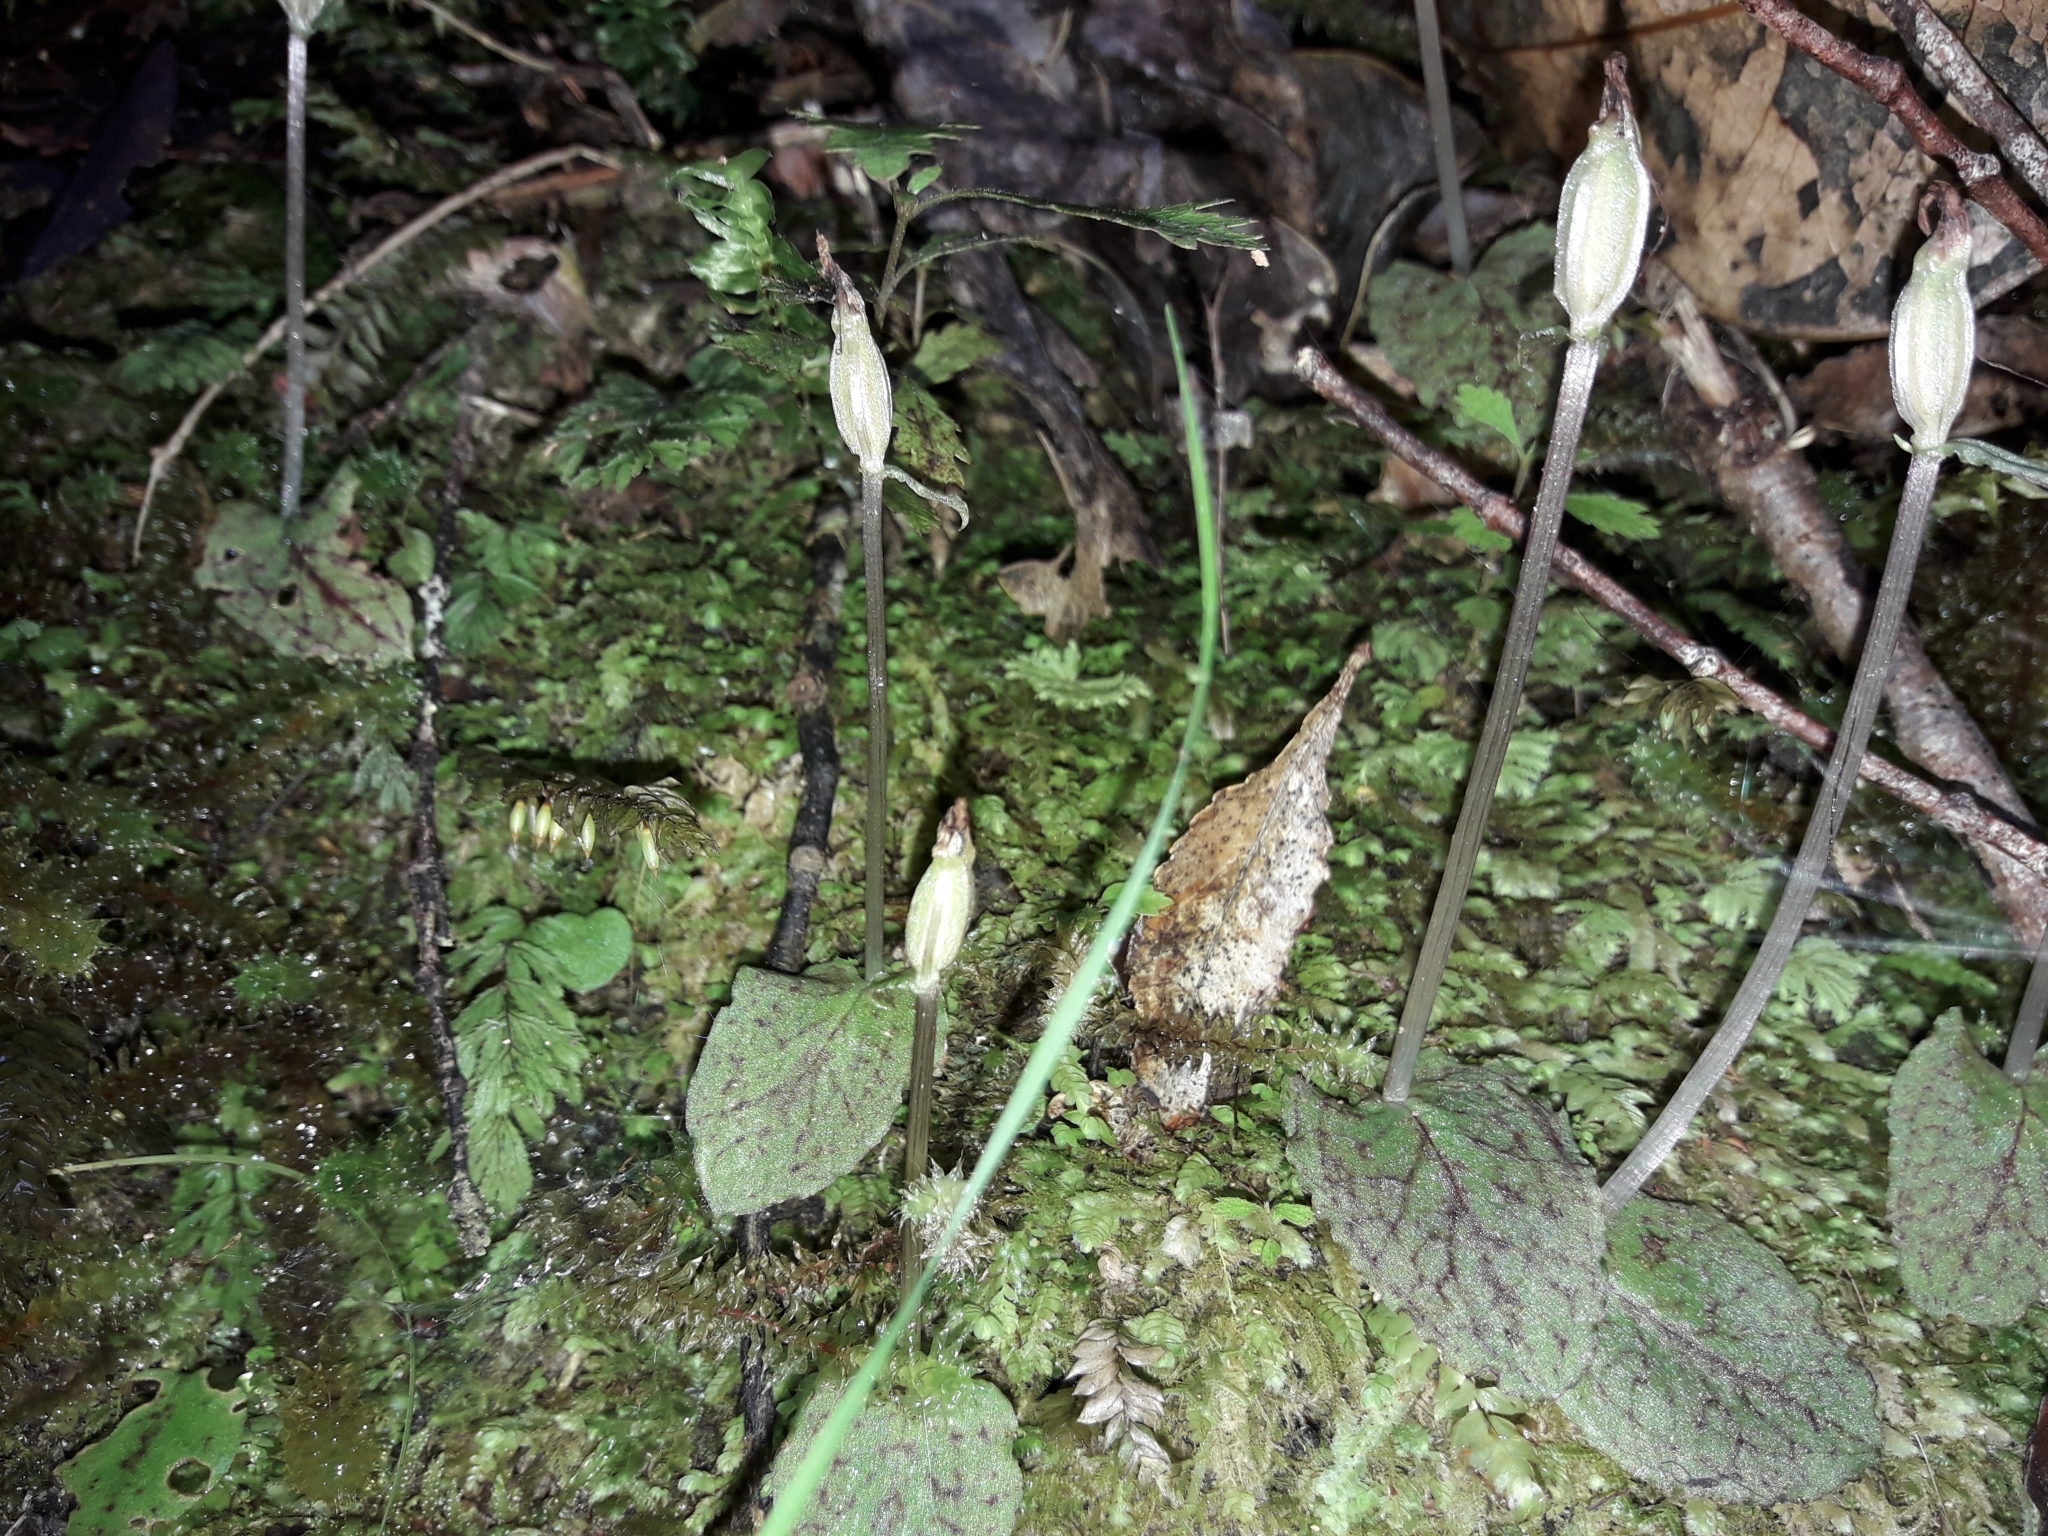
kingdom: Plantae
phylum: Tracheophyta
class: Liliopsida
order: Asparagales
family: Orchidaceae
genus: Corybas
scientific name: Corybas oblongus
